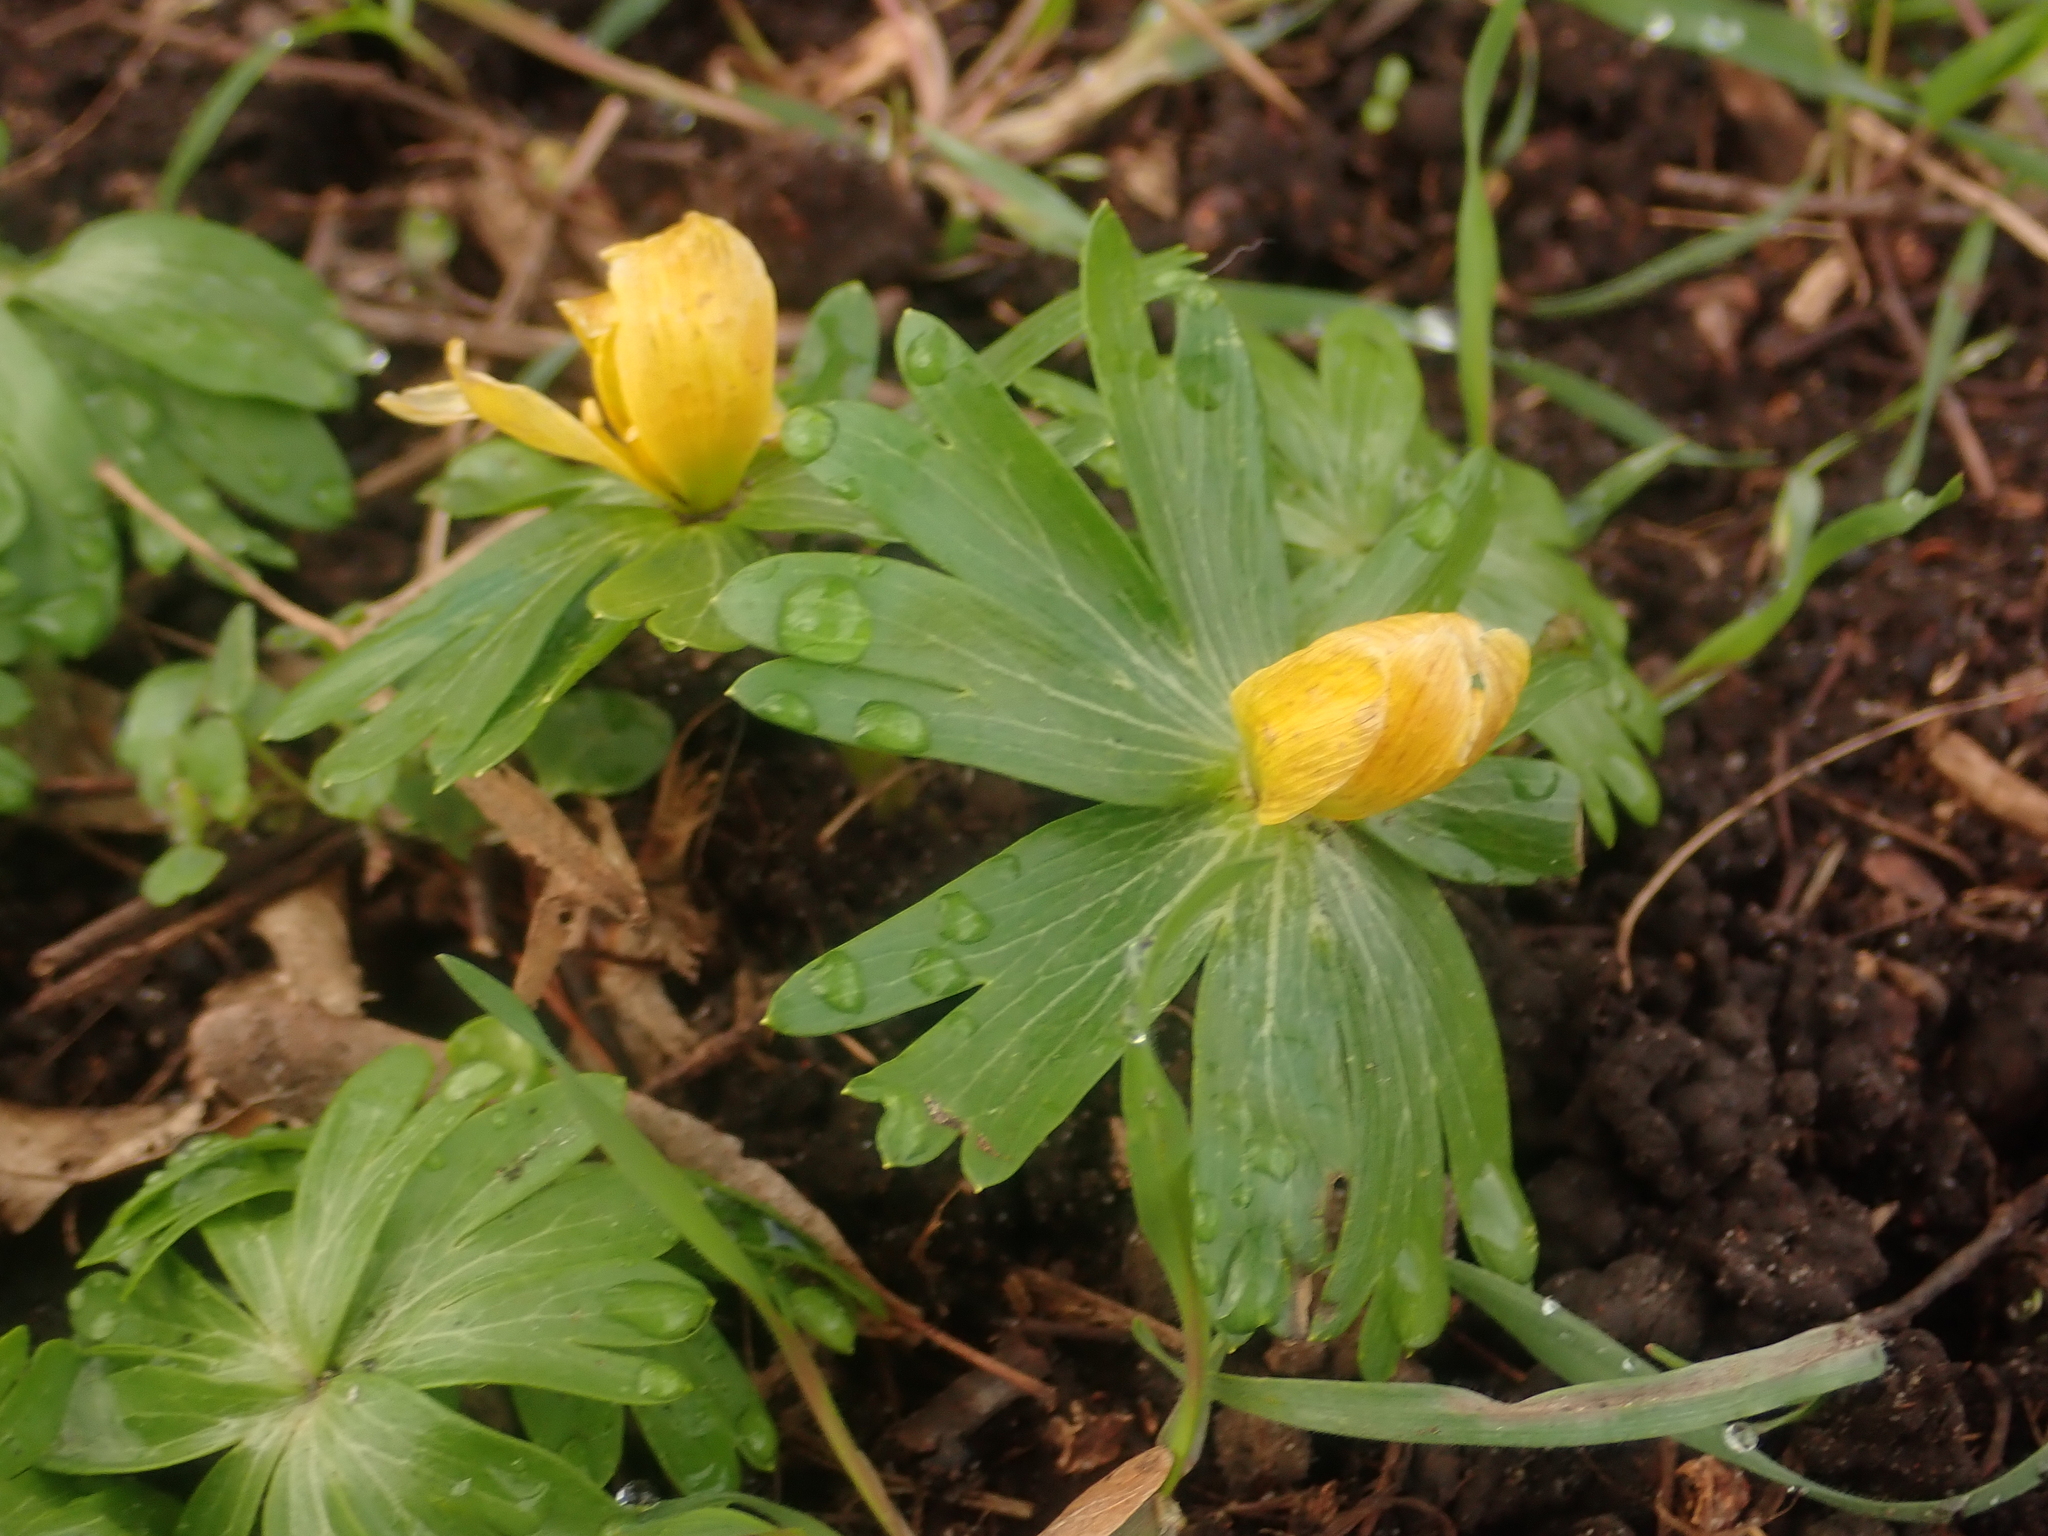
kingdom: Plantae
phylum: Tracheophyta
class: Magnoliopsida
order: Ranunculales
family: Ranunculaceae
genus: Eranthis
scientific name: Eranthis hyemalis
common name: Winter aconite
